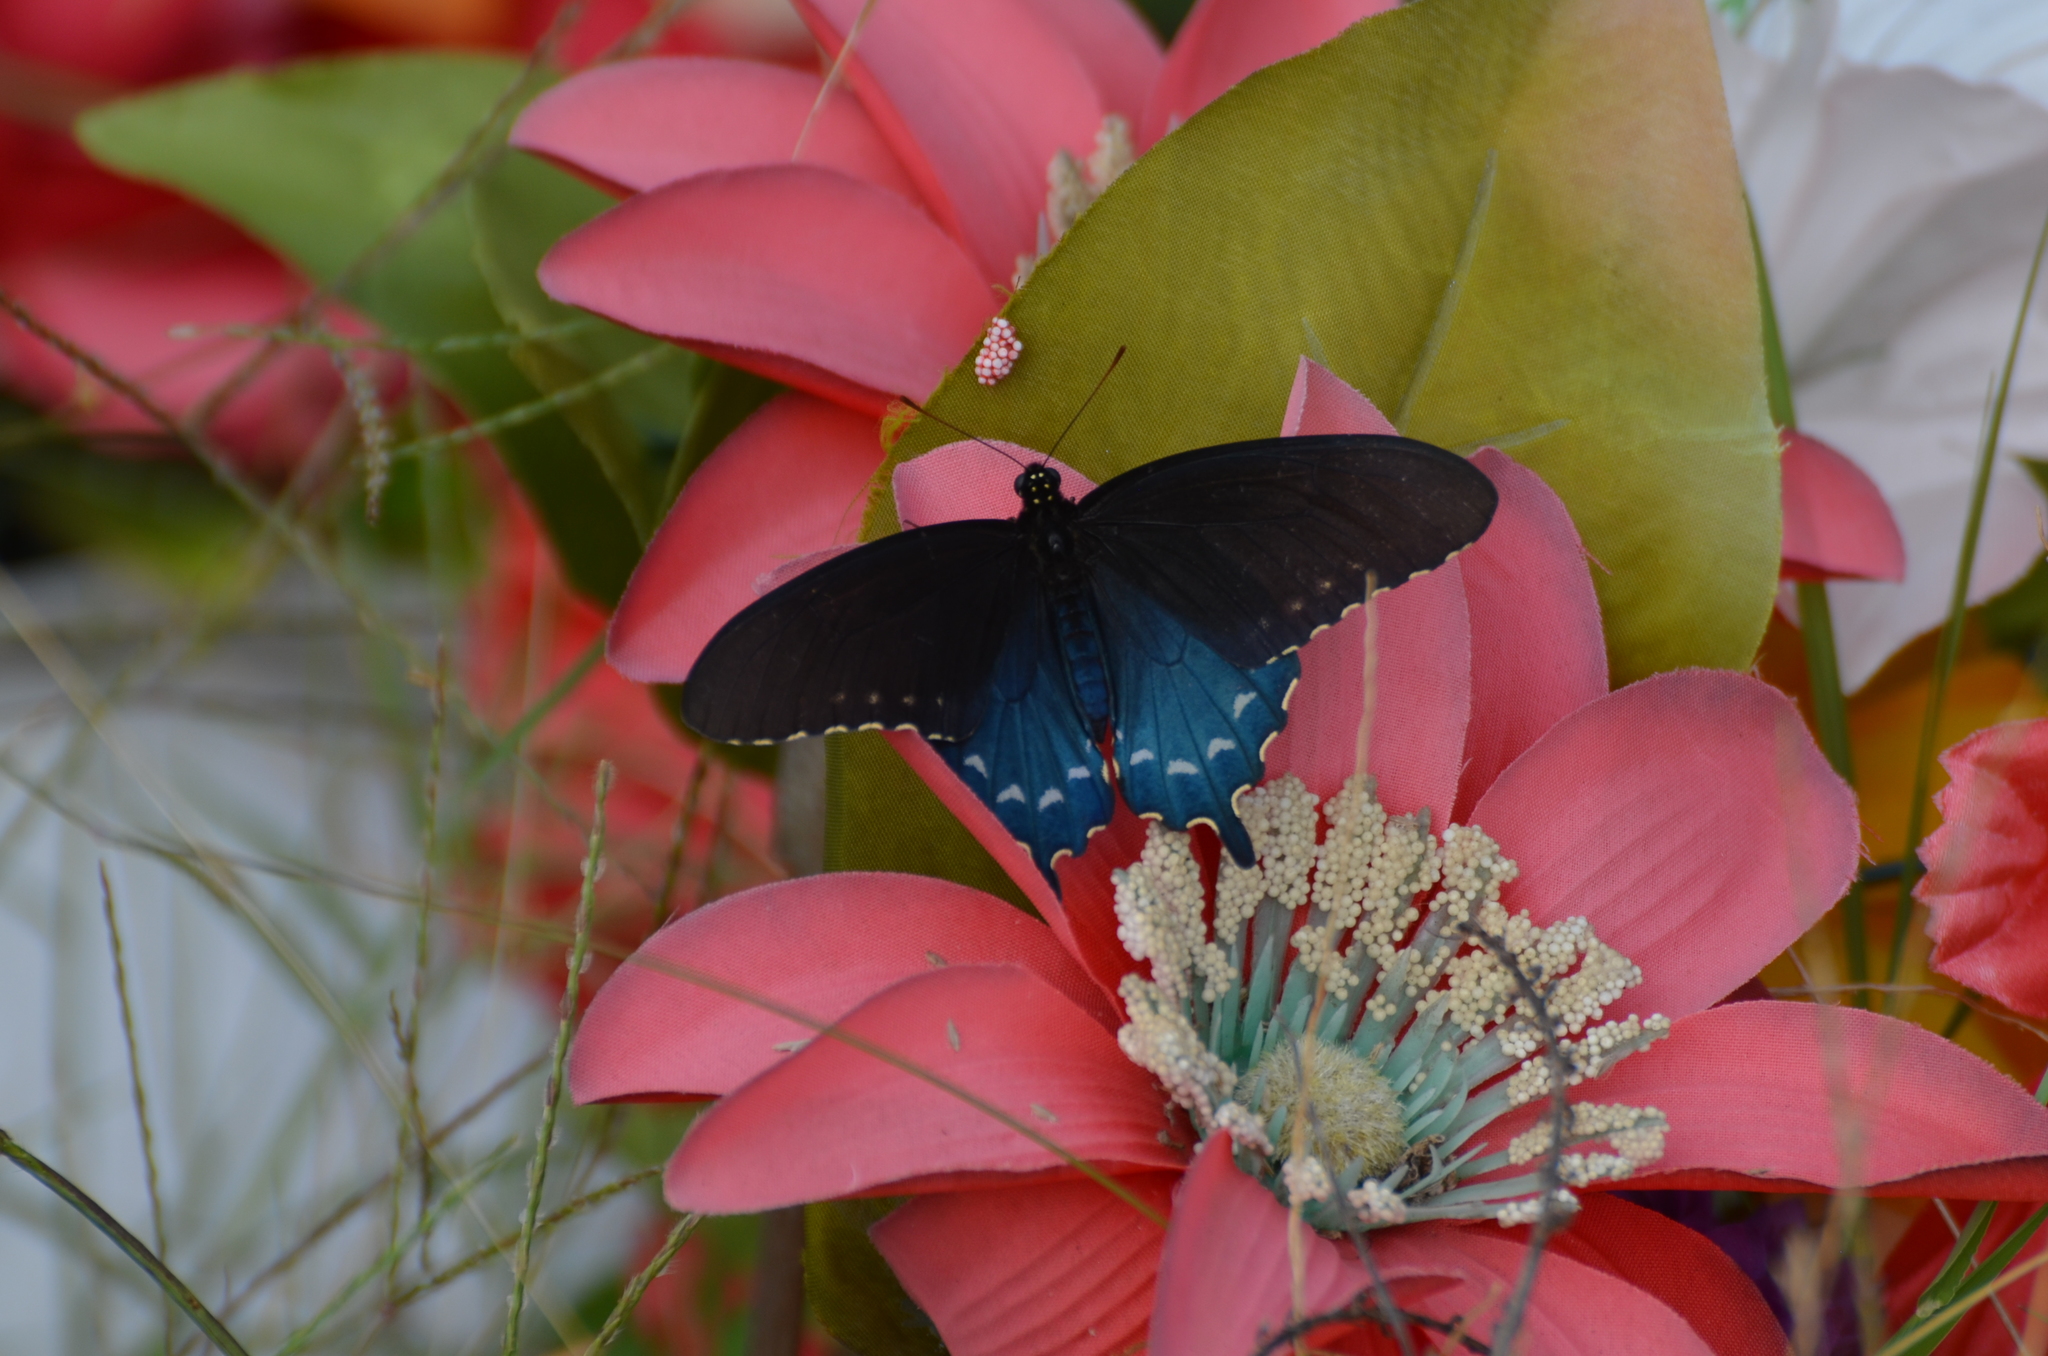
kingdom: Animalia
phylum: Arthropoda
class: Insecta
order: Lepidoptera
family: Papilionidae
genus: Battus
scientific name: Battus philenor
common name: Pipevine swallowtail
